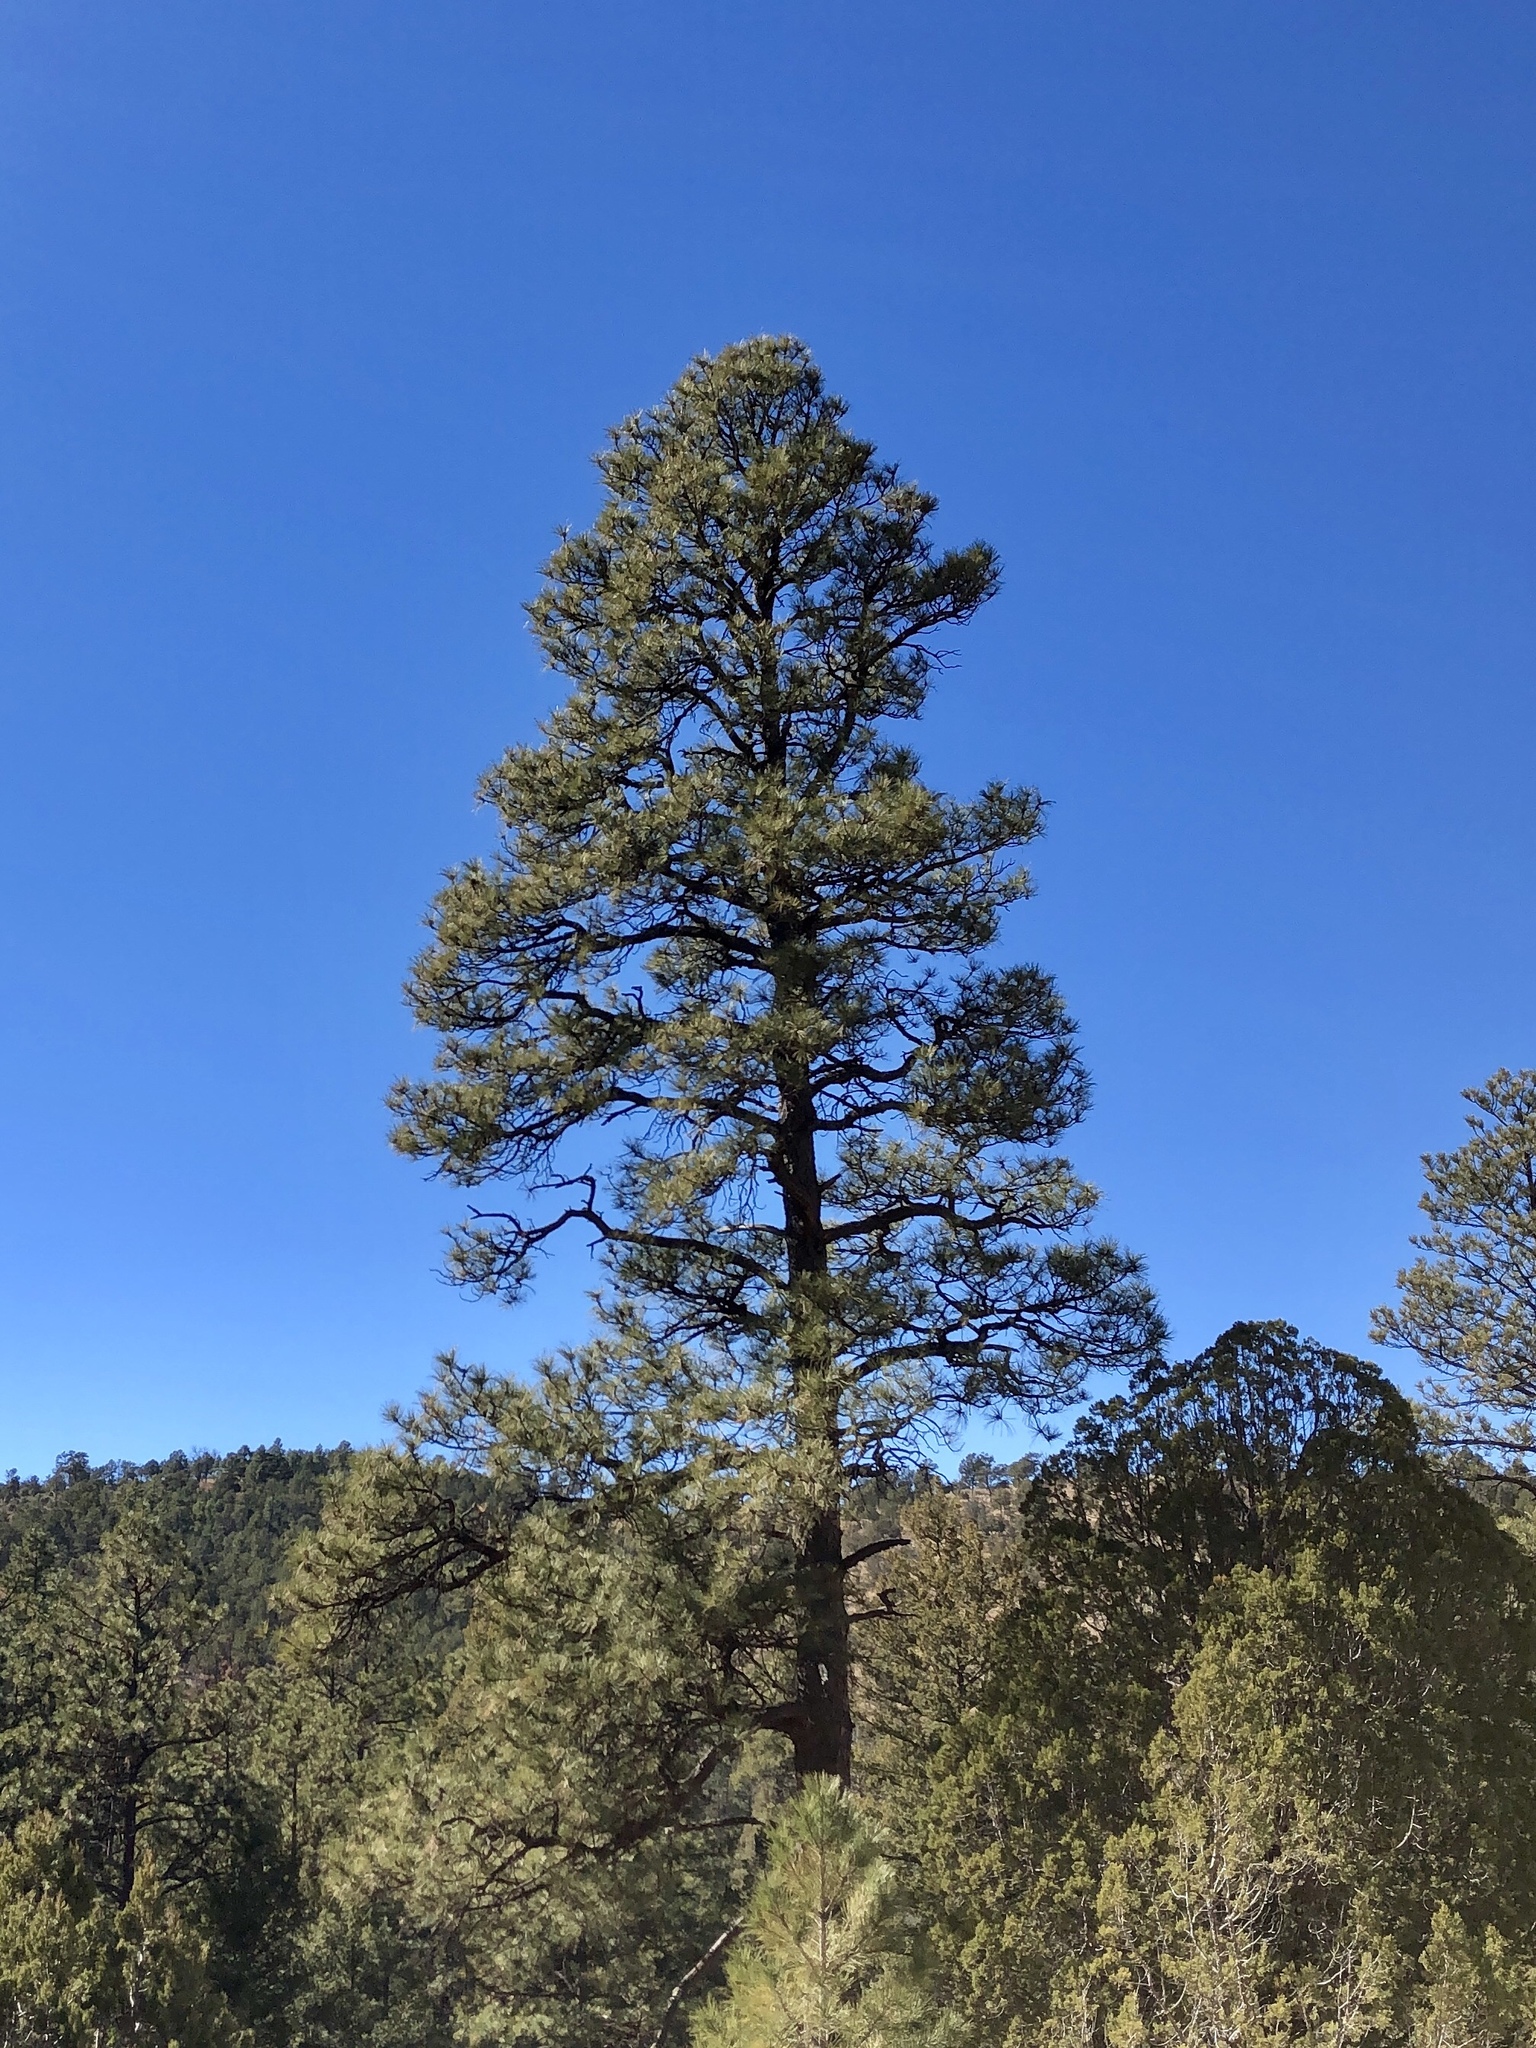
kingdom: Plantae
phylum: Tracheophyta
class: Pinopsida
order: Pinales
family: Pinaceae
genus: Pinus
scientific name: Pinus ponderosa
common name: Western yellow-pine
